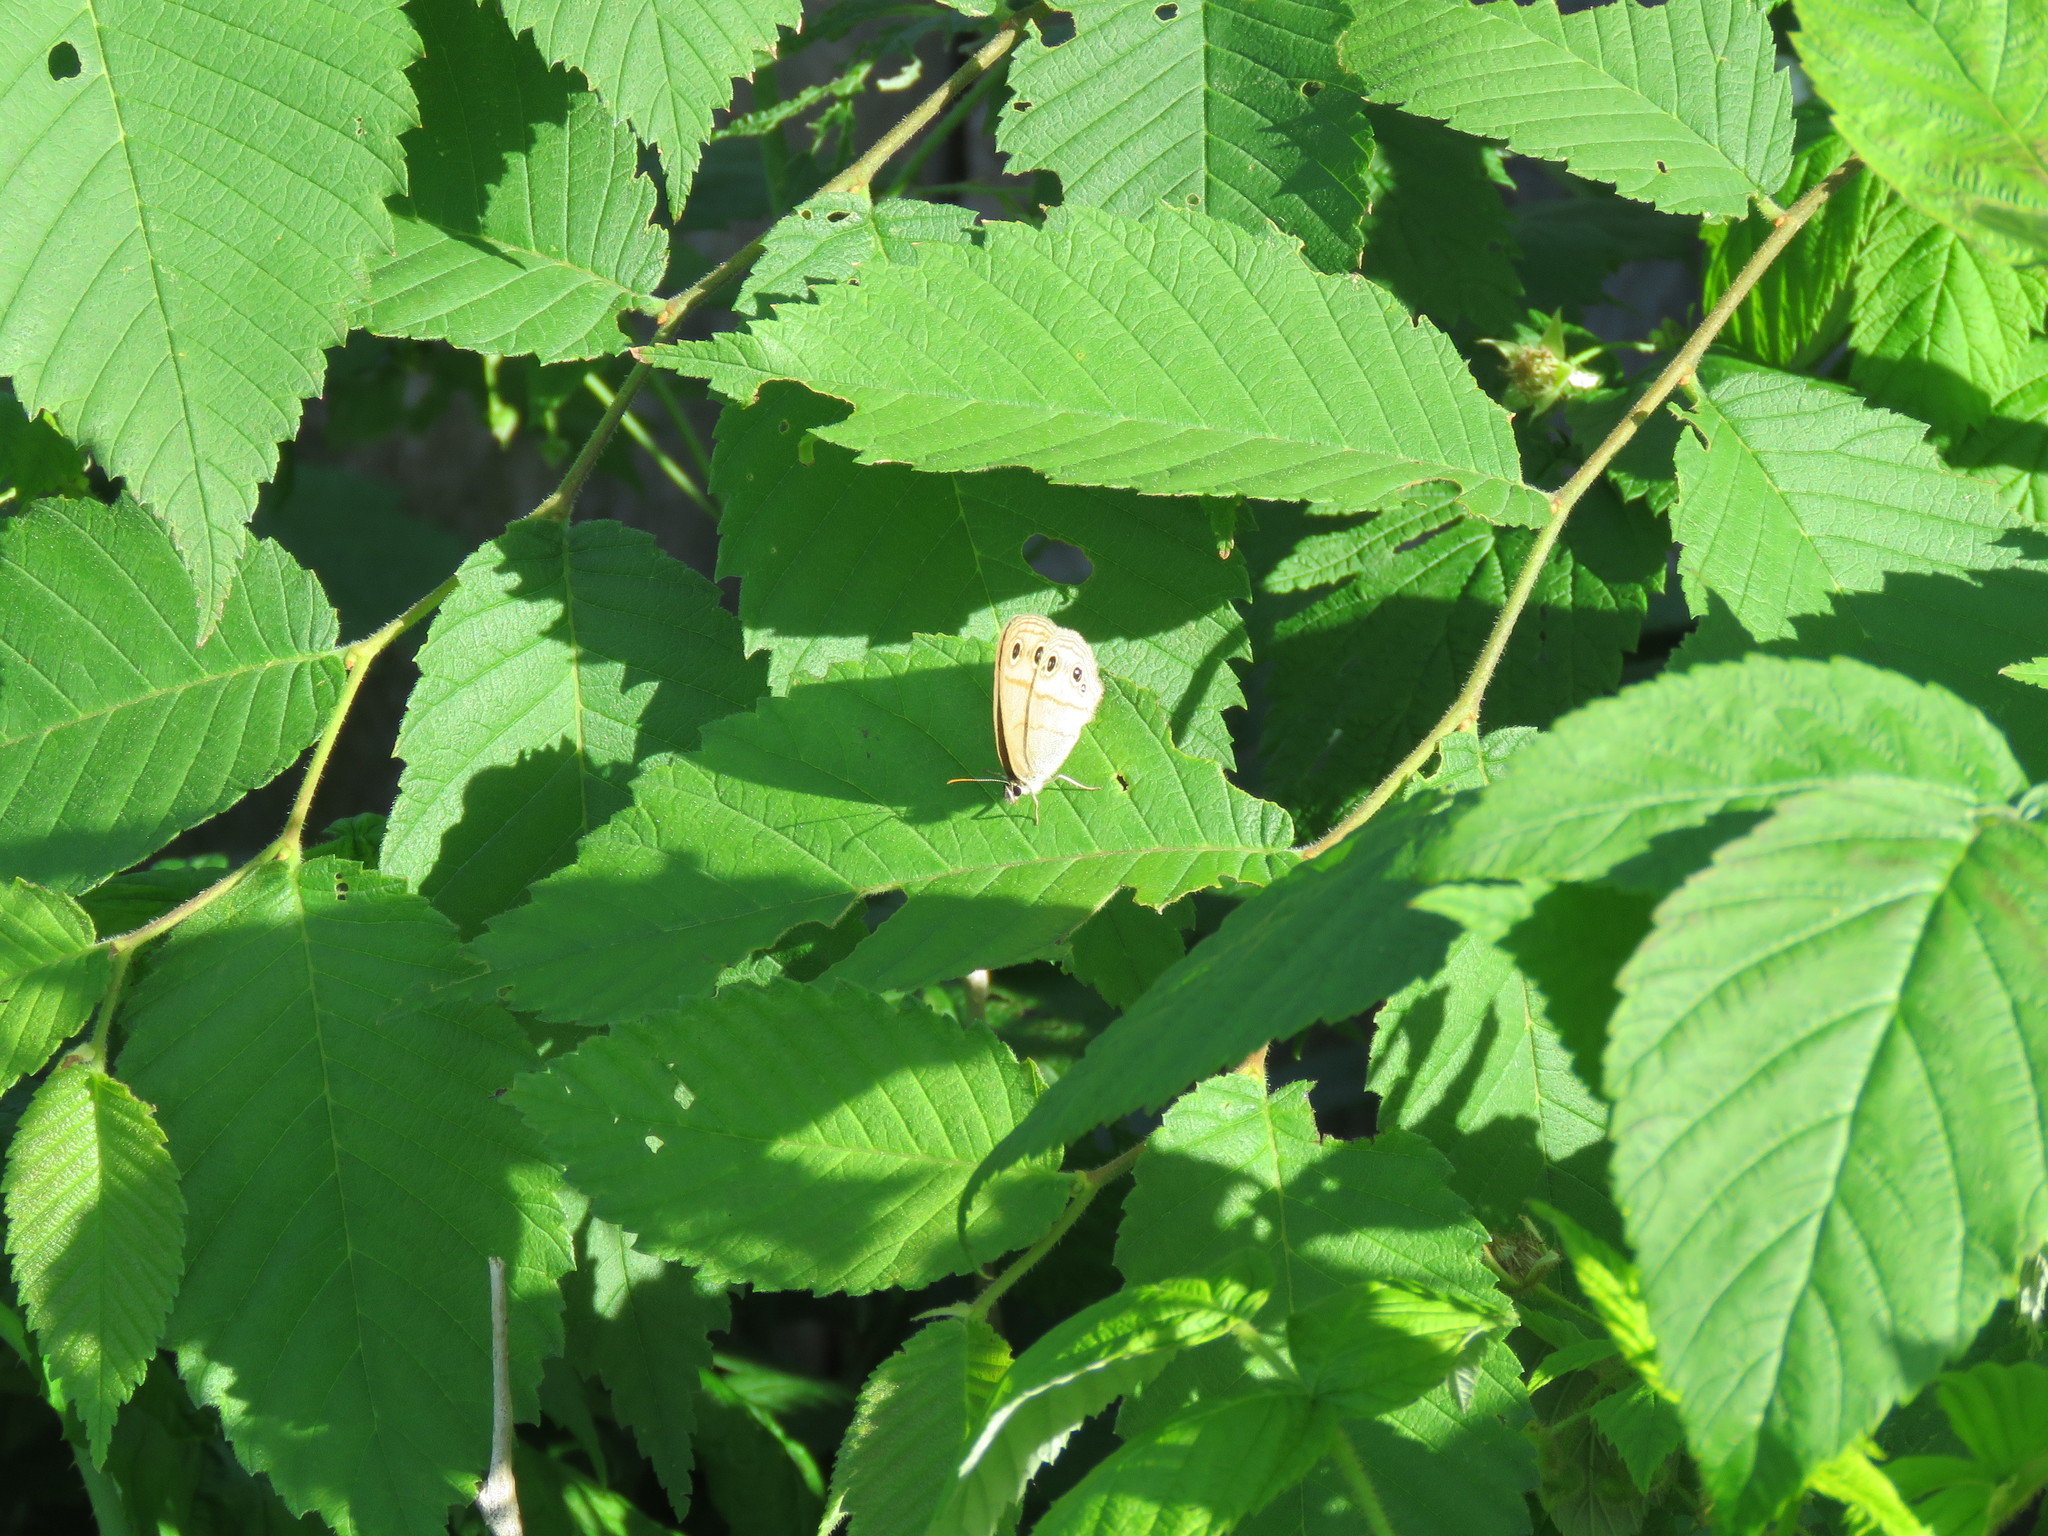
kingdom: Animalia
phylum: Arthropoda
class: Insecta
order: Lepidoptera
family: Nymphalidae
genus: Euptychia
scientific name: Euptychia cymela
